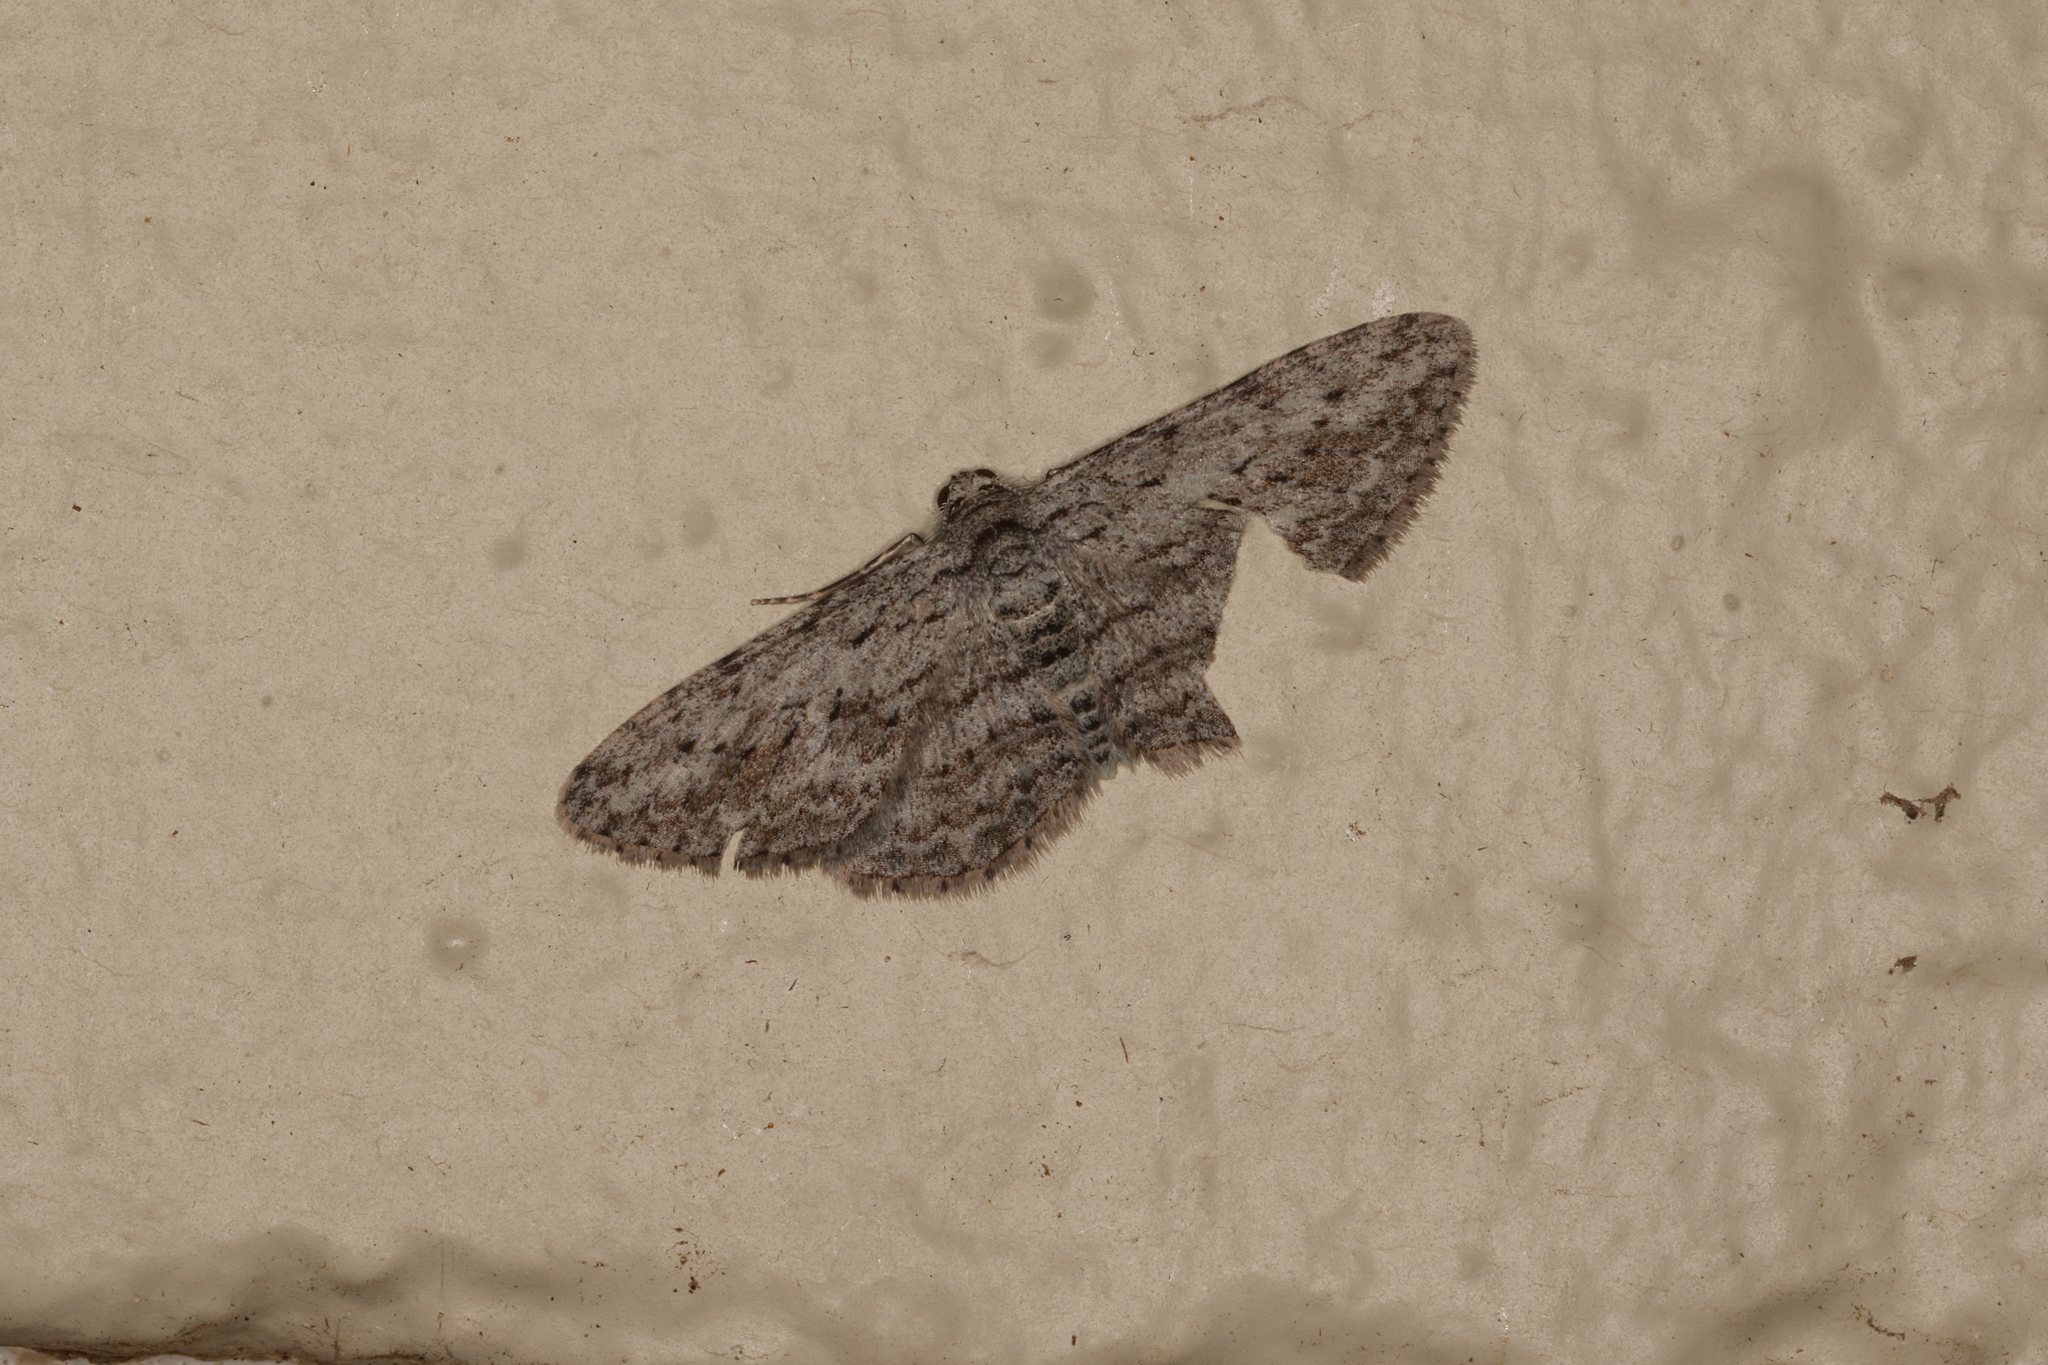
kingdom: Animalia
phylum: Arthropoda
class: Insecta
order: Lepidoptera
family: Geometridae
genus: Phelotis
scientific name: Phelotis cognata
